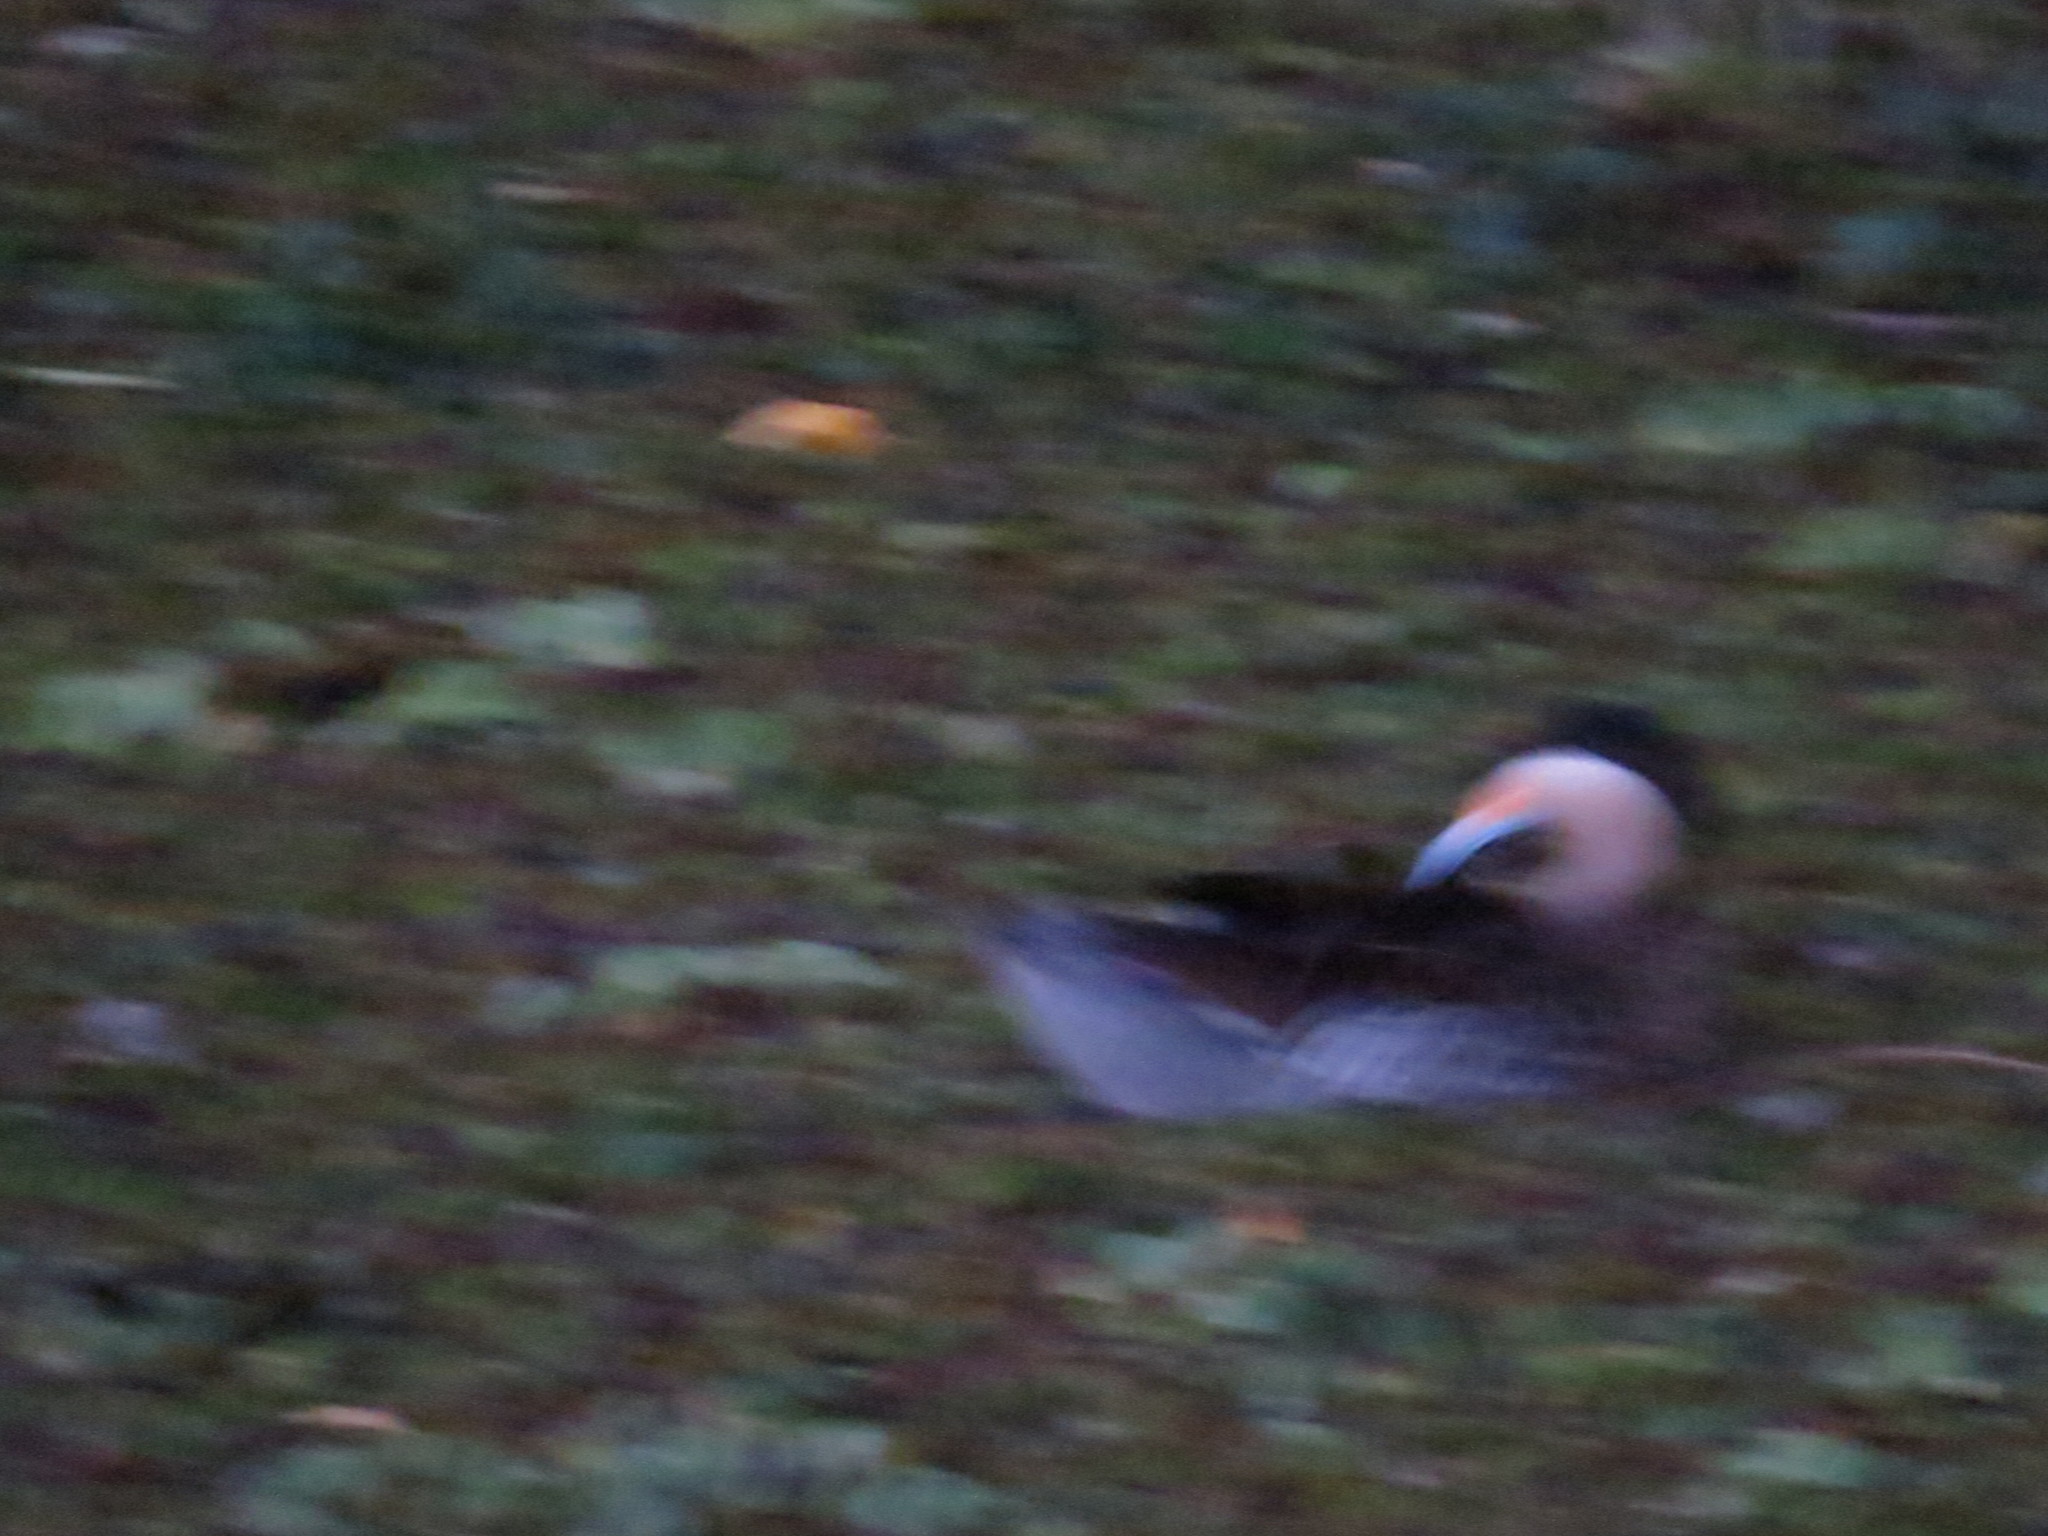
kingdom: Animalia
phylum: Chordata
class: Aves
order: Anseriformes
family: Anatidae
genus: Spatula
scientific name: Spatula versicolor
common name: Silver teal
